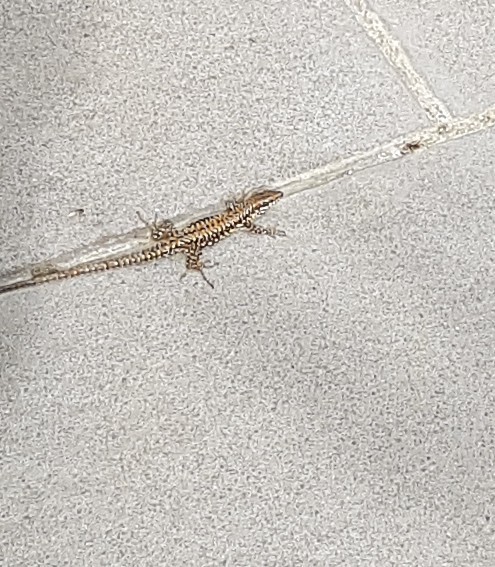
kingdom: Animalia
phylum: Chordata
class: Squamata
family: Lacertidae
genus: Podarcis
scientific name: Podarcis muralis
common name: Common wall lizard
